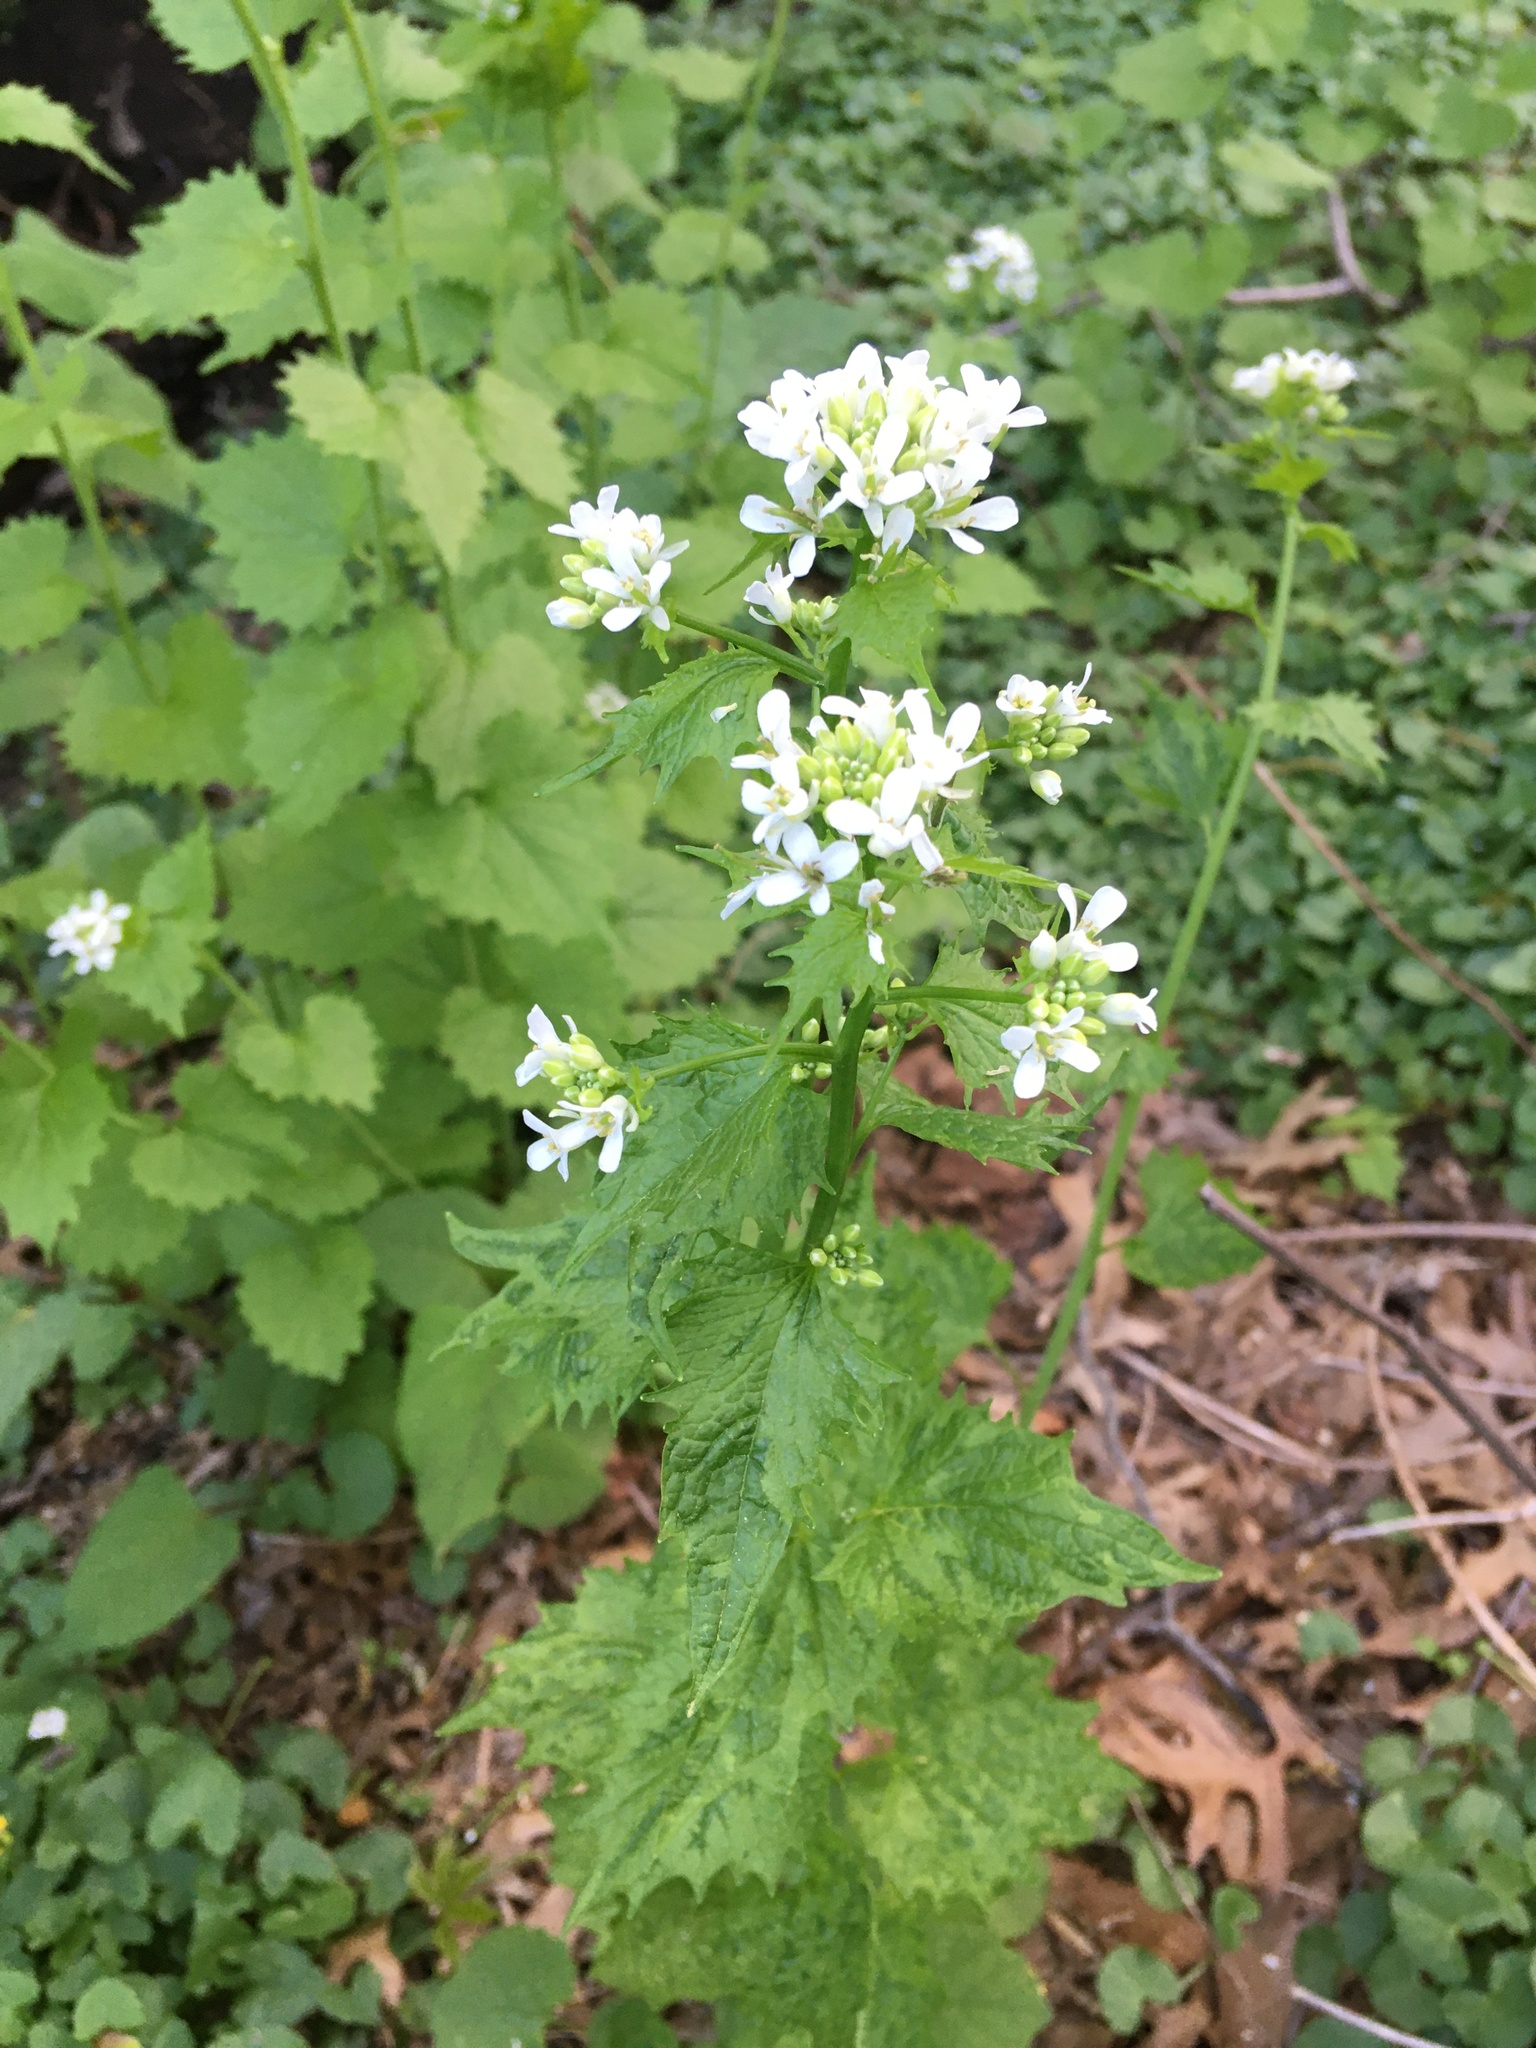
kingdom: Plantae
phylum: Tracheophyta
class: Magnoliopsida
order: Brassicales
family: Brassicaceae
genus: Alliaria
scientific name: Alliaria petiolata
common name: Garlic mustard
